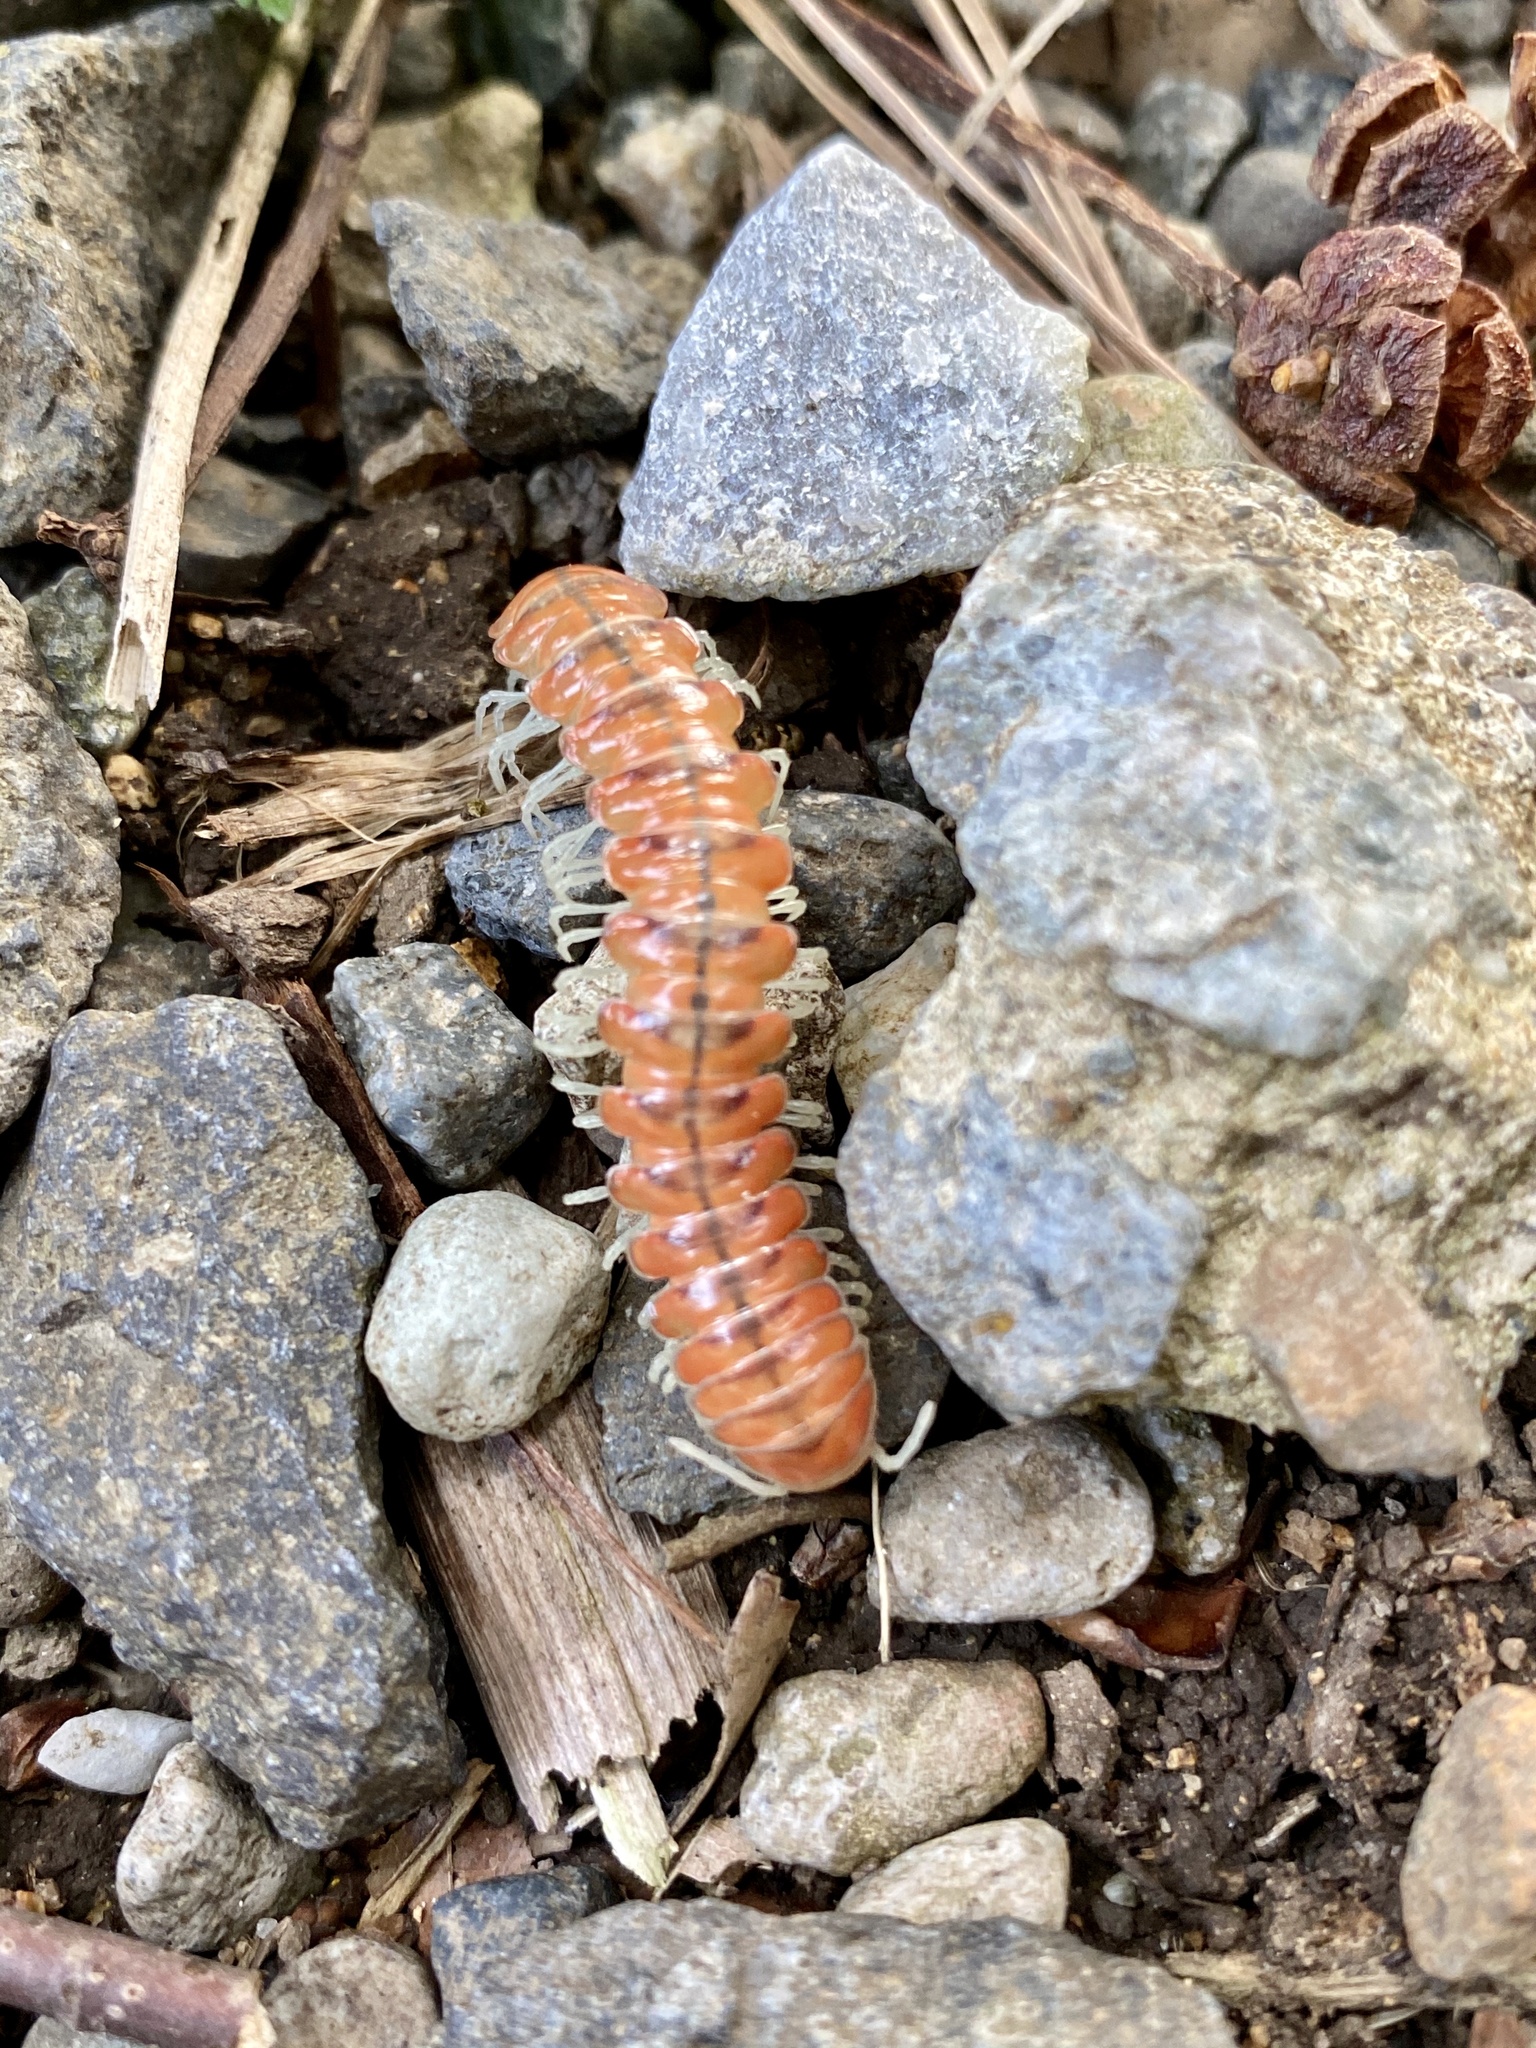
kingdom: Animalia
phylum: Arthropoda
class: Diplopoda
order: Polydesmida
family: Xystodesmidae
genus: Parafontaria
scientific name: Parafontaria laminata
